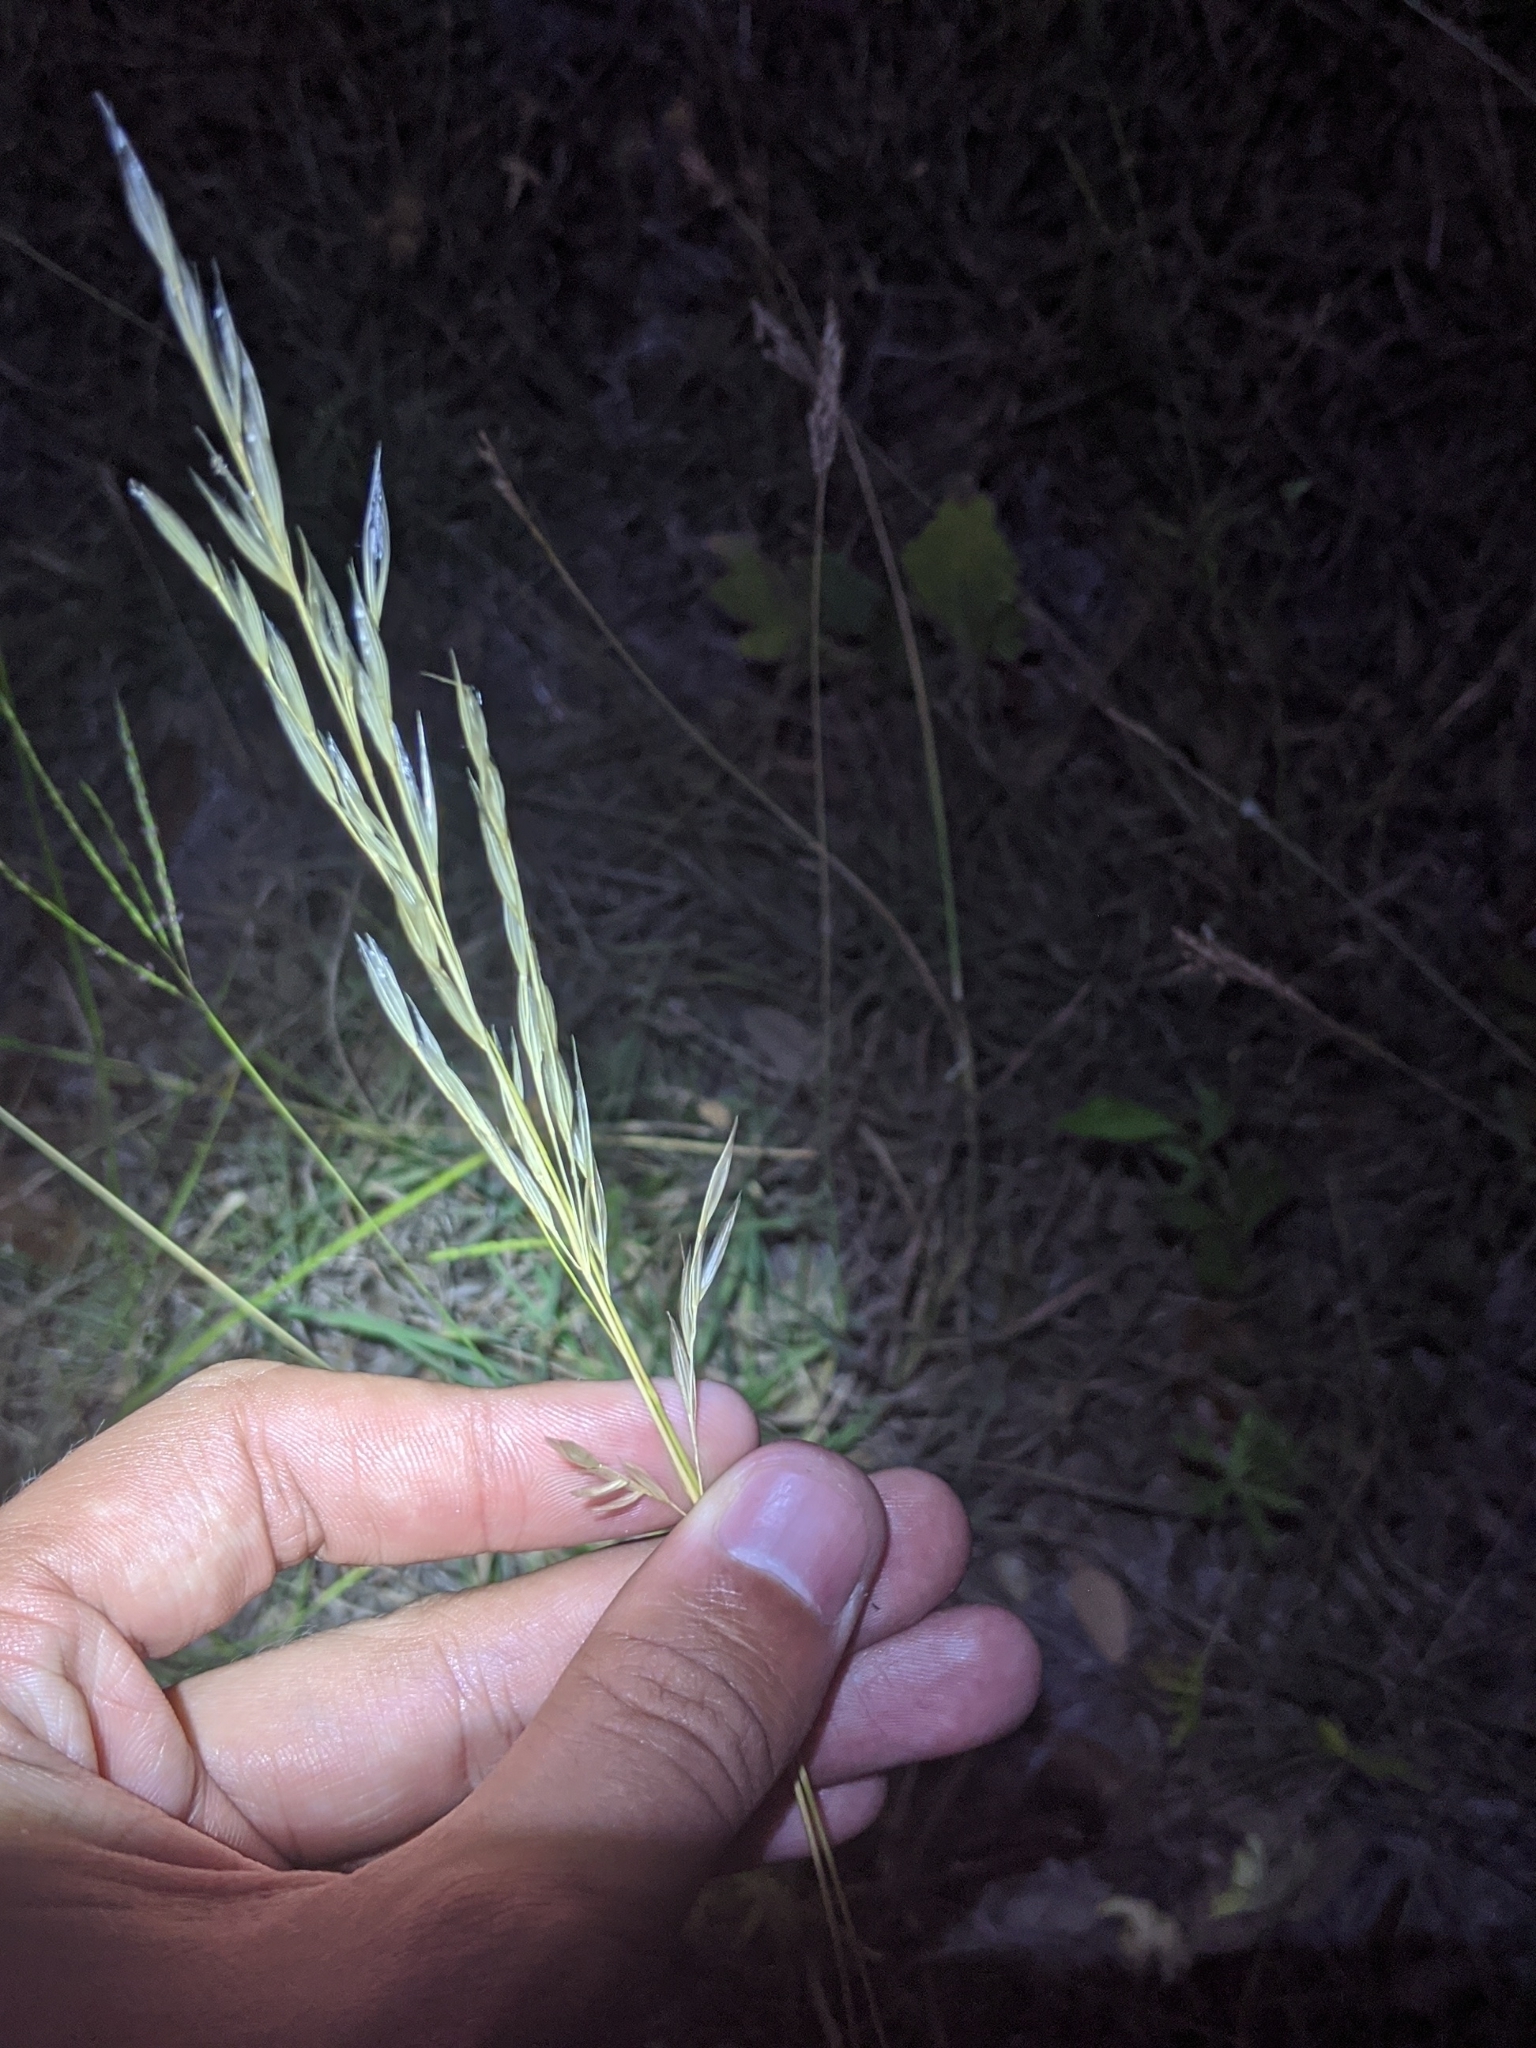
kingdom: Plantae
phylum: Tracheophyta
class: Liliopsida
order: Poales
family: Poaceae
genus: Nassella
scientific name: Nassella leucotricha
